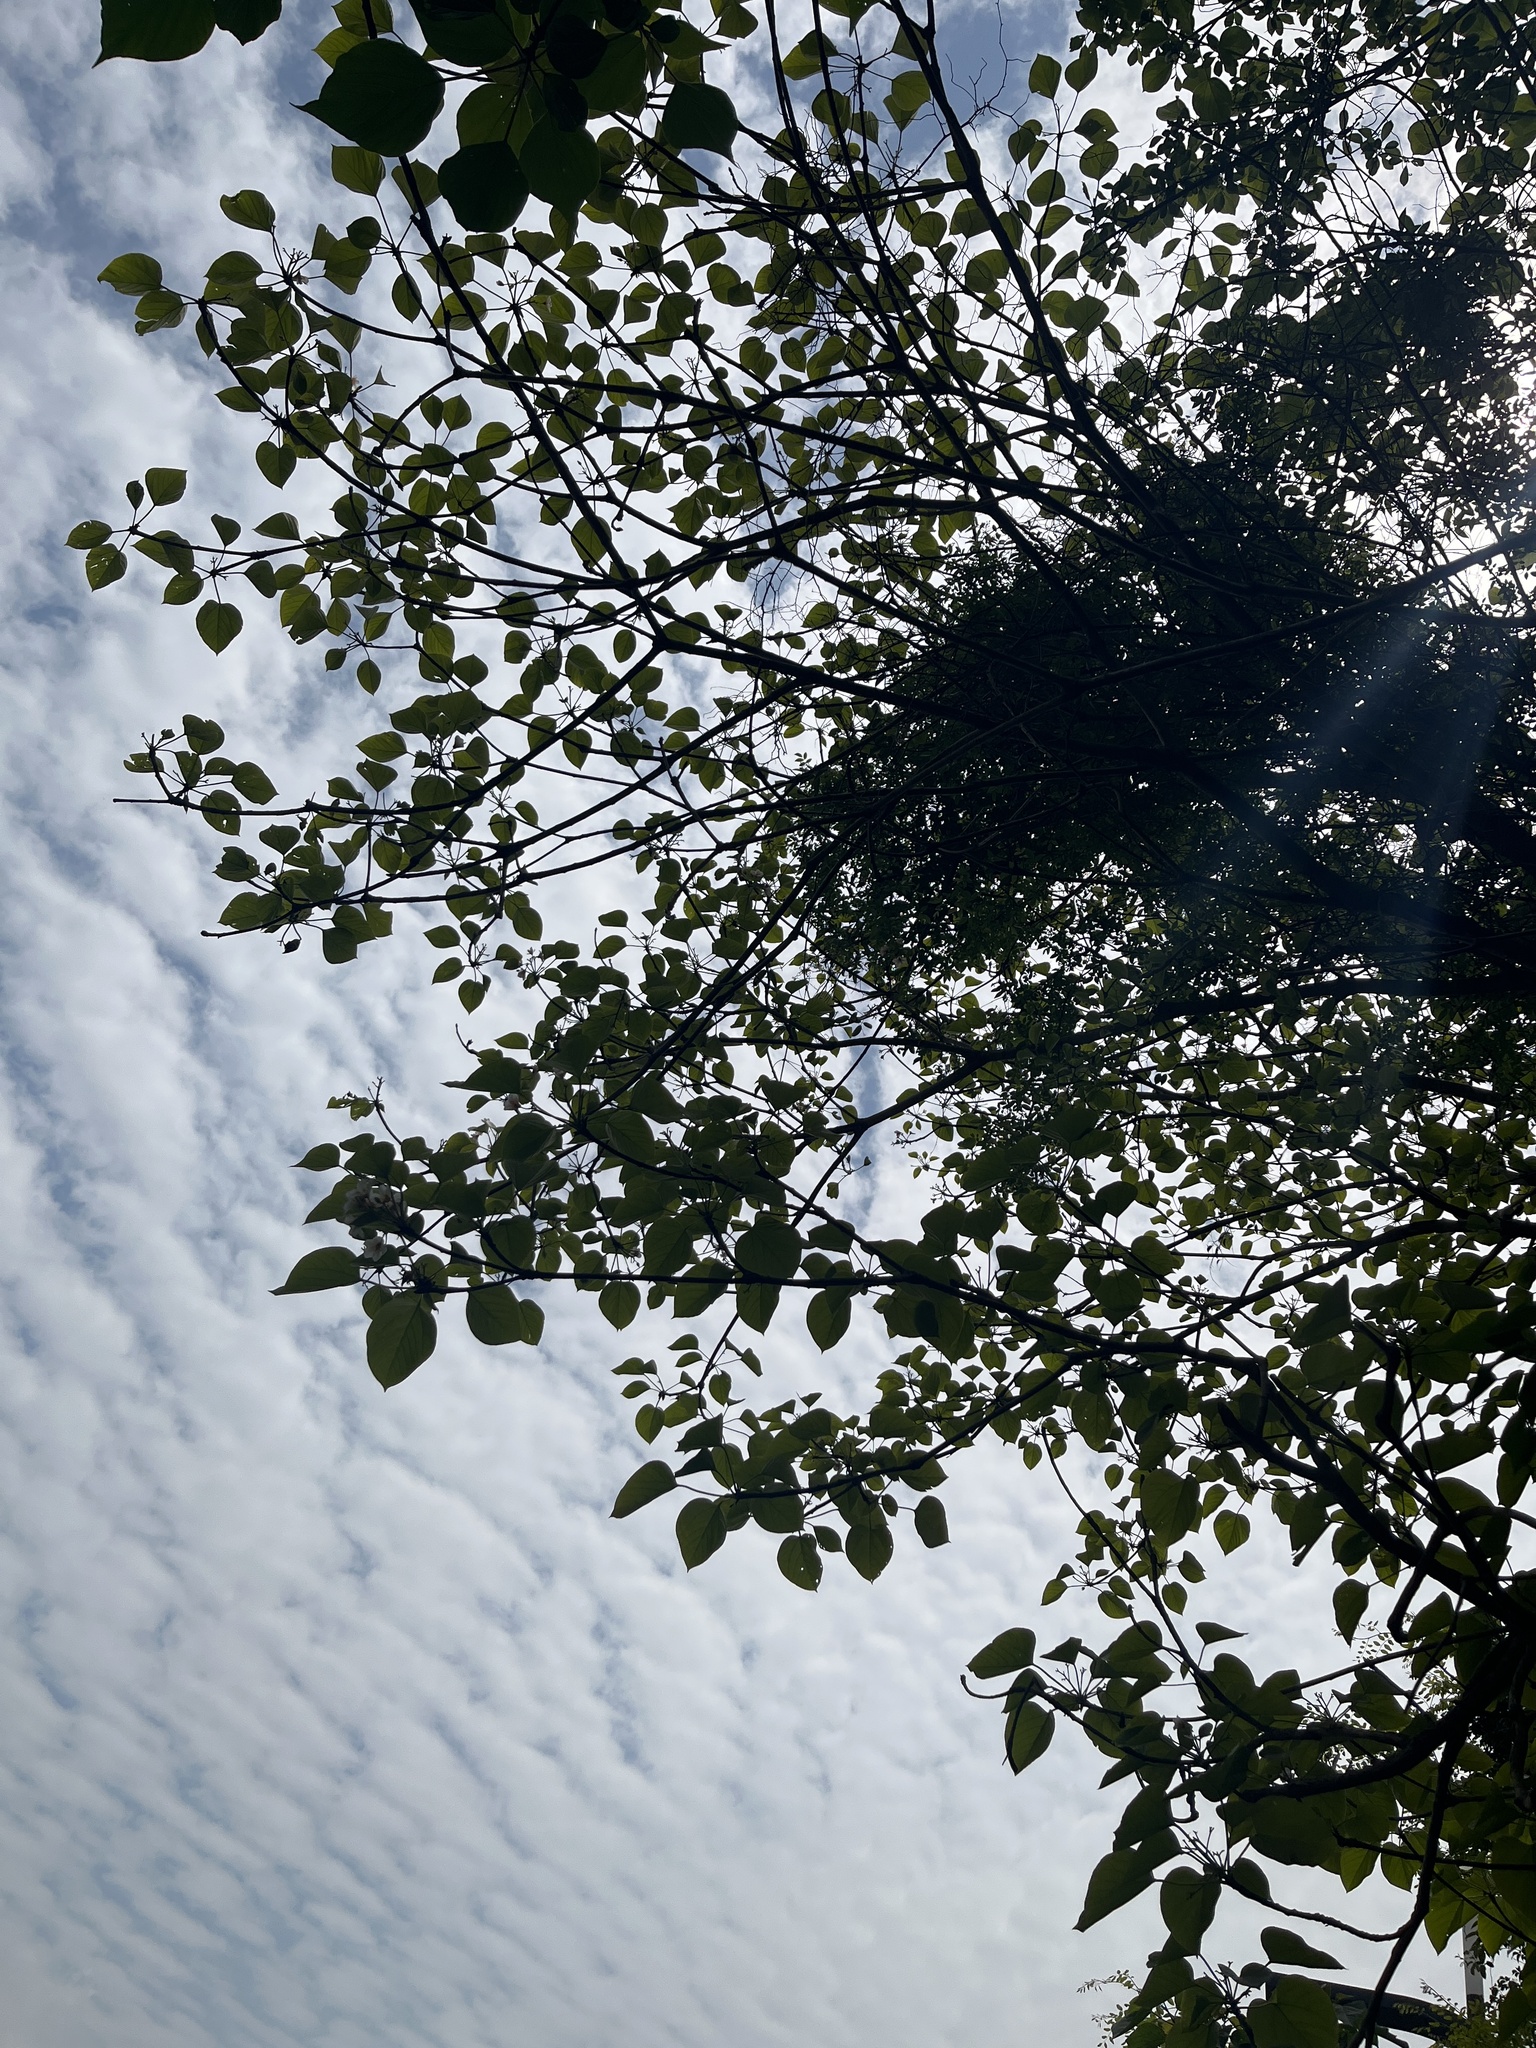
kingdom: Plantae
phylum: Tracheophyta
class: Magnoliopsida
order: Malpighiales
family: Euphorbiaceae
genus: Vernicia
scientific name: Vernicia fordii
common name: Tungoil tree
